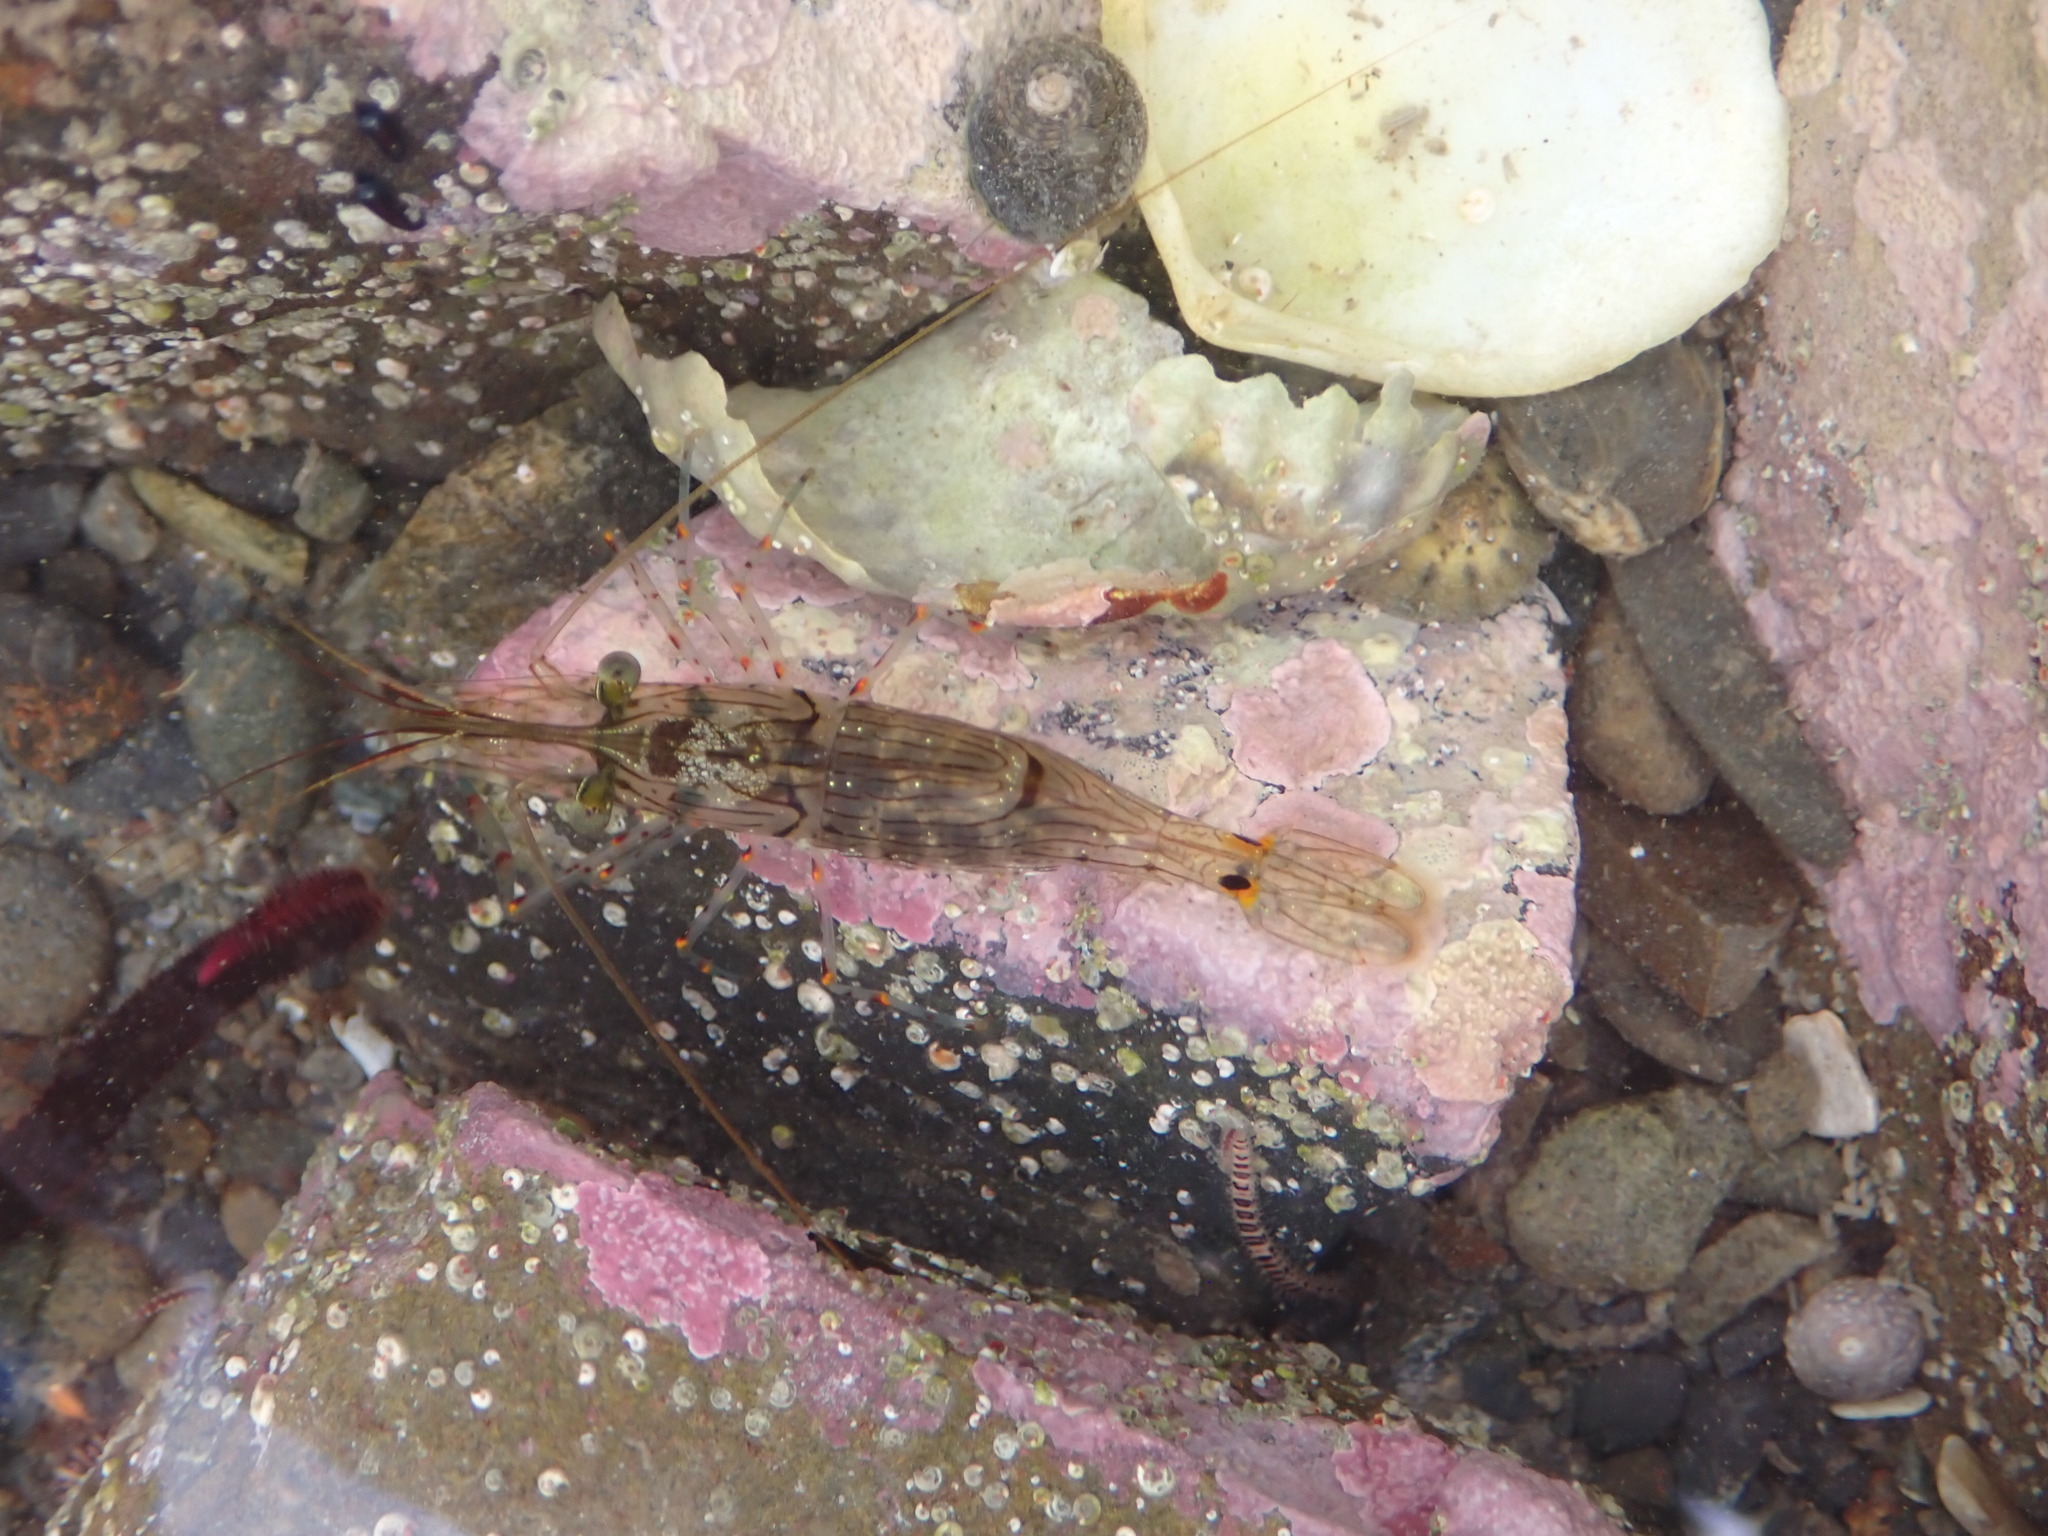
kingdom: Animalia
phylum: Arthropoda
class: Malacostraca
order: Decapoda
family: Palaemonidae
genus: Palaemon
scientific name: Palaemon affinis
